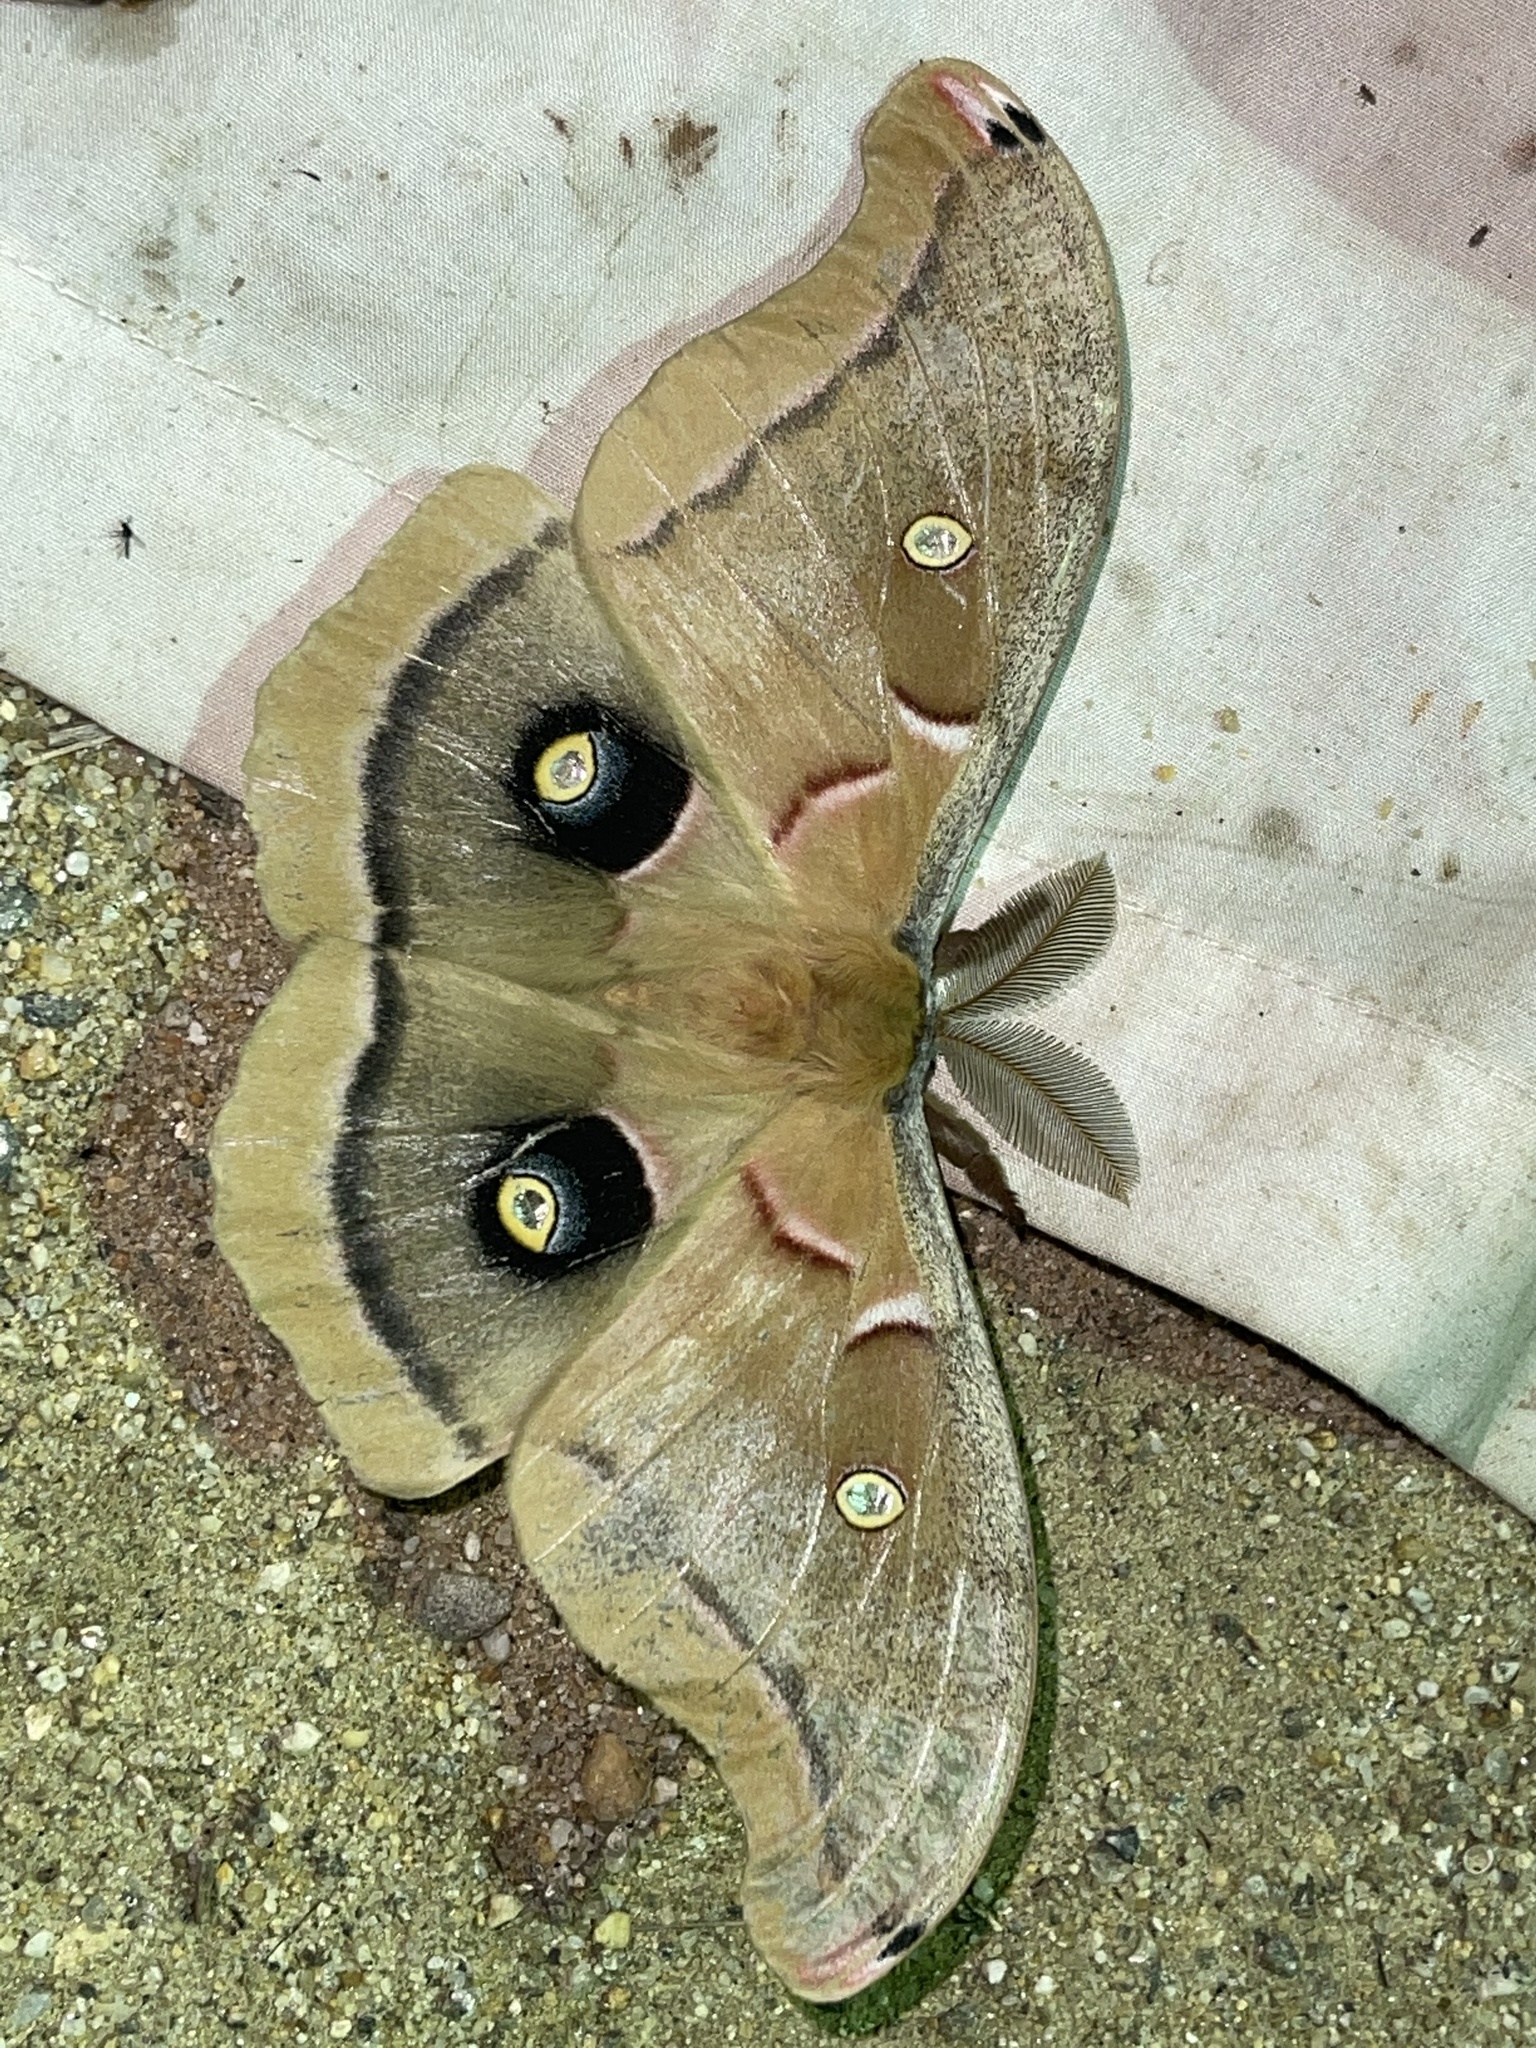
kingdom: Animalia
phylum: Arthropoda
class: Insecta
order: Lepidoptera
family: Saturniidae
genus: Antheraea
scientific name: Antheraea polyphemus
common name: Polyphemus moth
